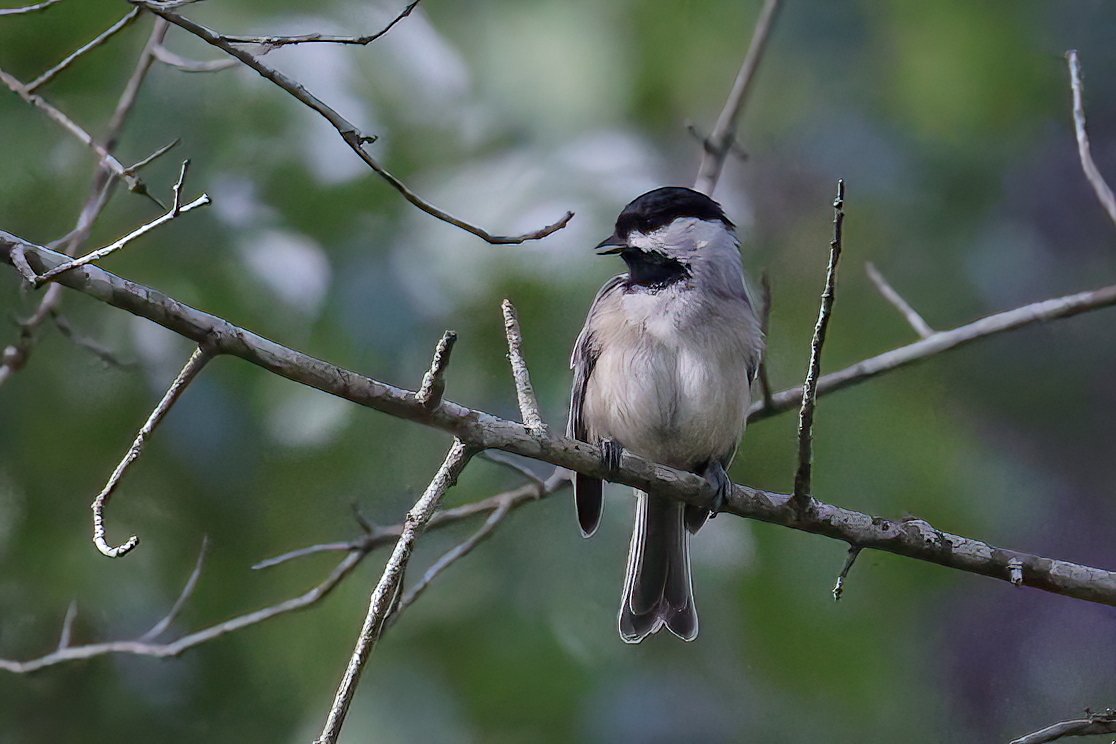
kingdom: Animalia
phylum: Chordata
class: Aves
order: Passeriformes
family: Paridae
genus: Poecile
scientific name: Poecile carolinensis
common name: Carolina chickadee
